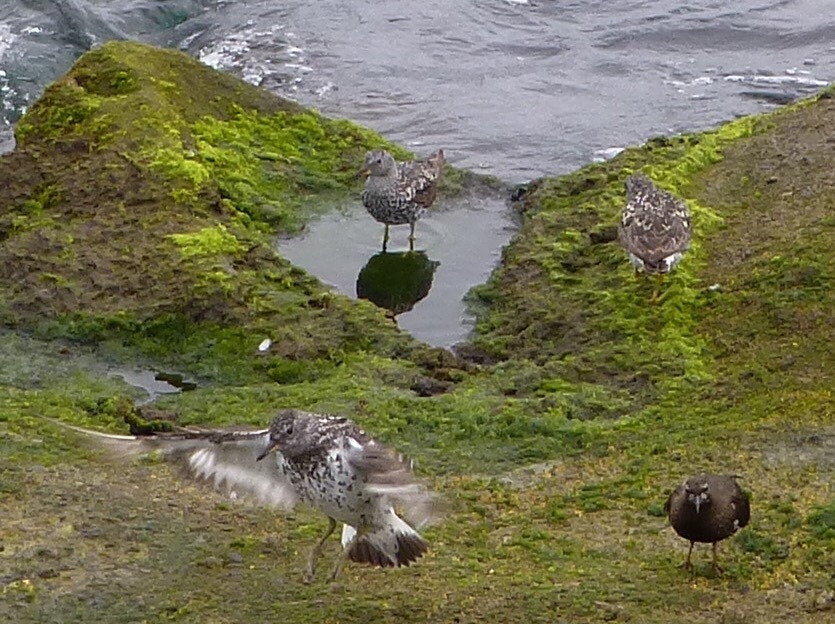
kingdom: Animalia
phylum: Chordata
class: Aves
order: Charadriiformes
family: Scolopacidae
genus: Calidris
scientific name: Calidris virgata
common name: Surfbird
